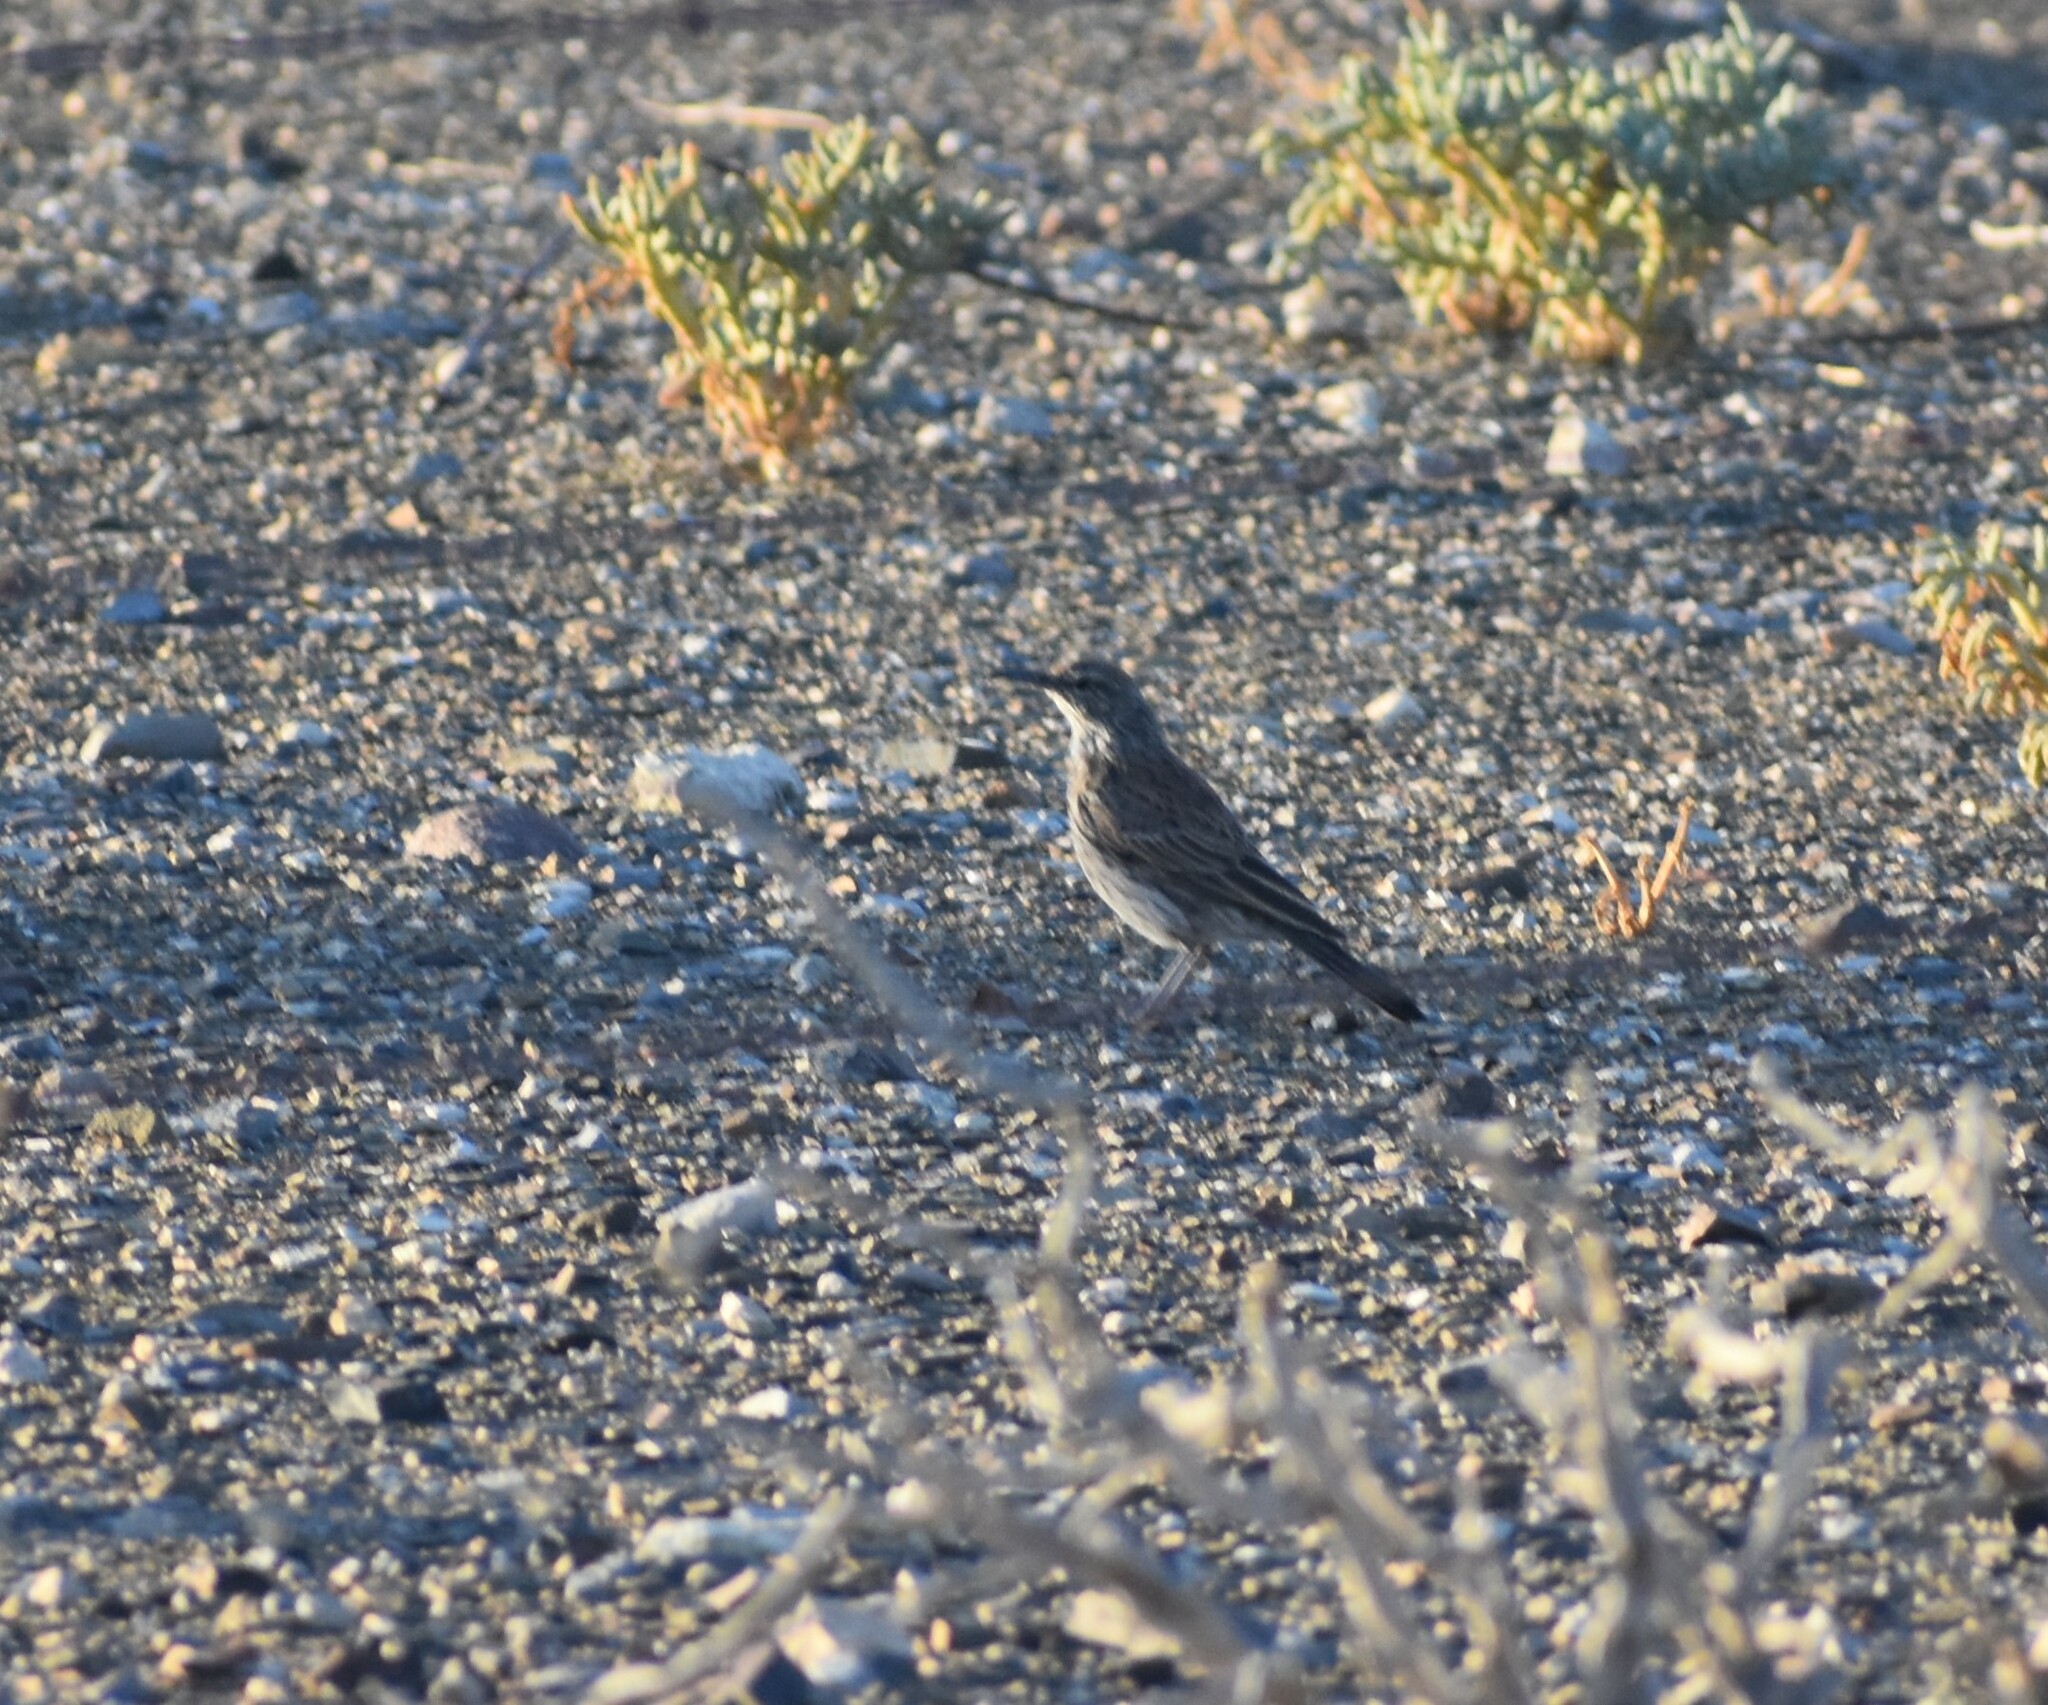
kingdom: Animalia
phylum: Chordata
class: Aves
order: Passeriformes
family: Alaudidae
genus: Certhilauda
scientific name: Certhilauda subcoronata
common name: Karoo long-billed lark
